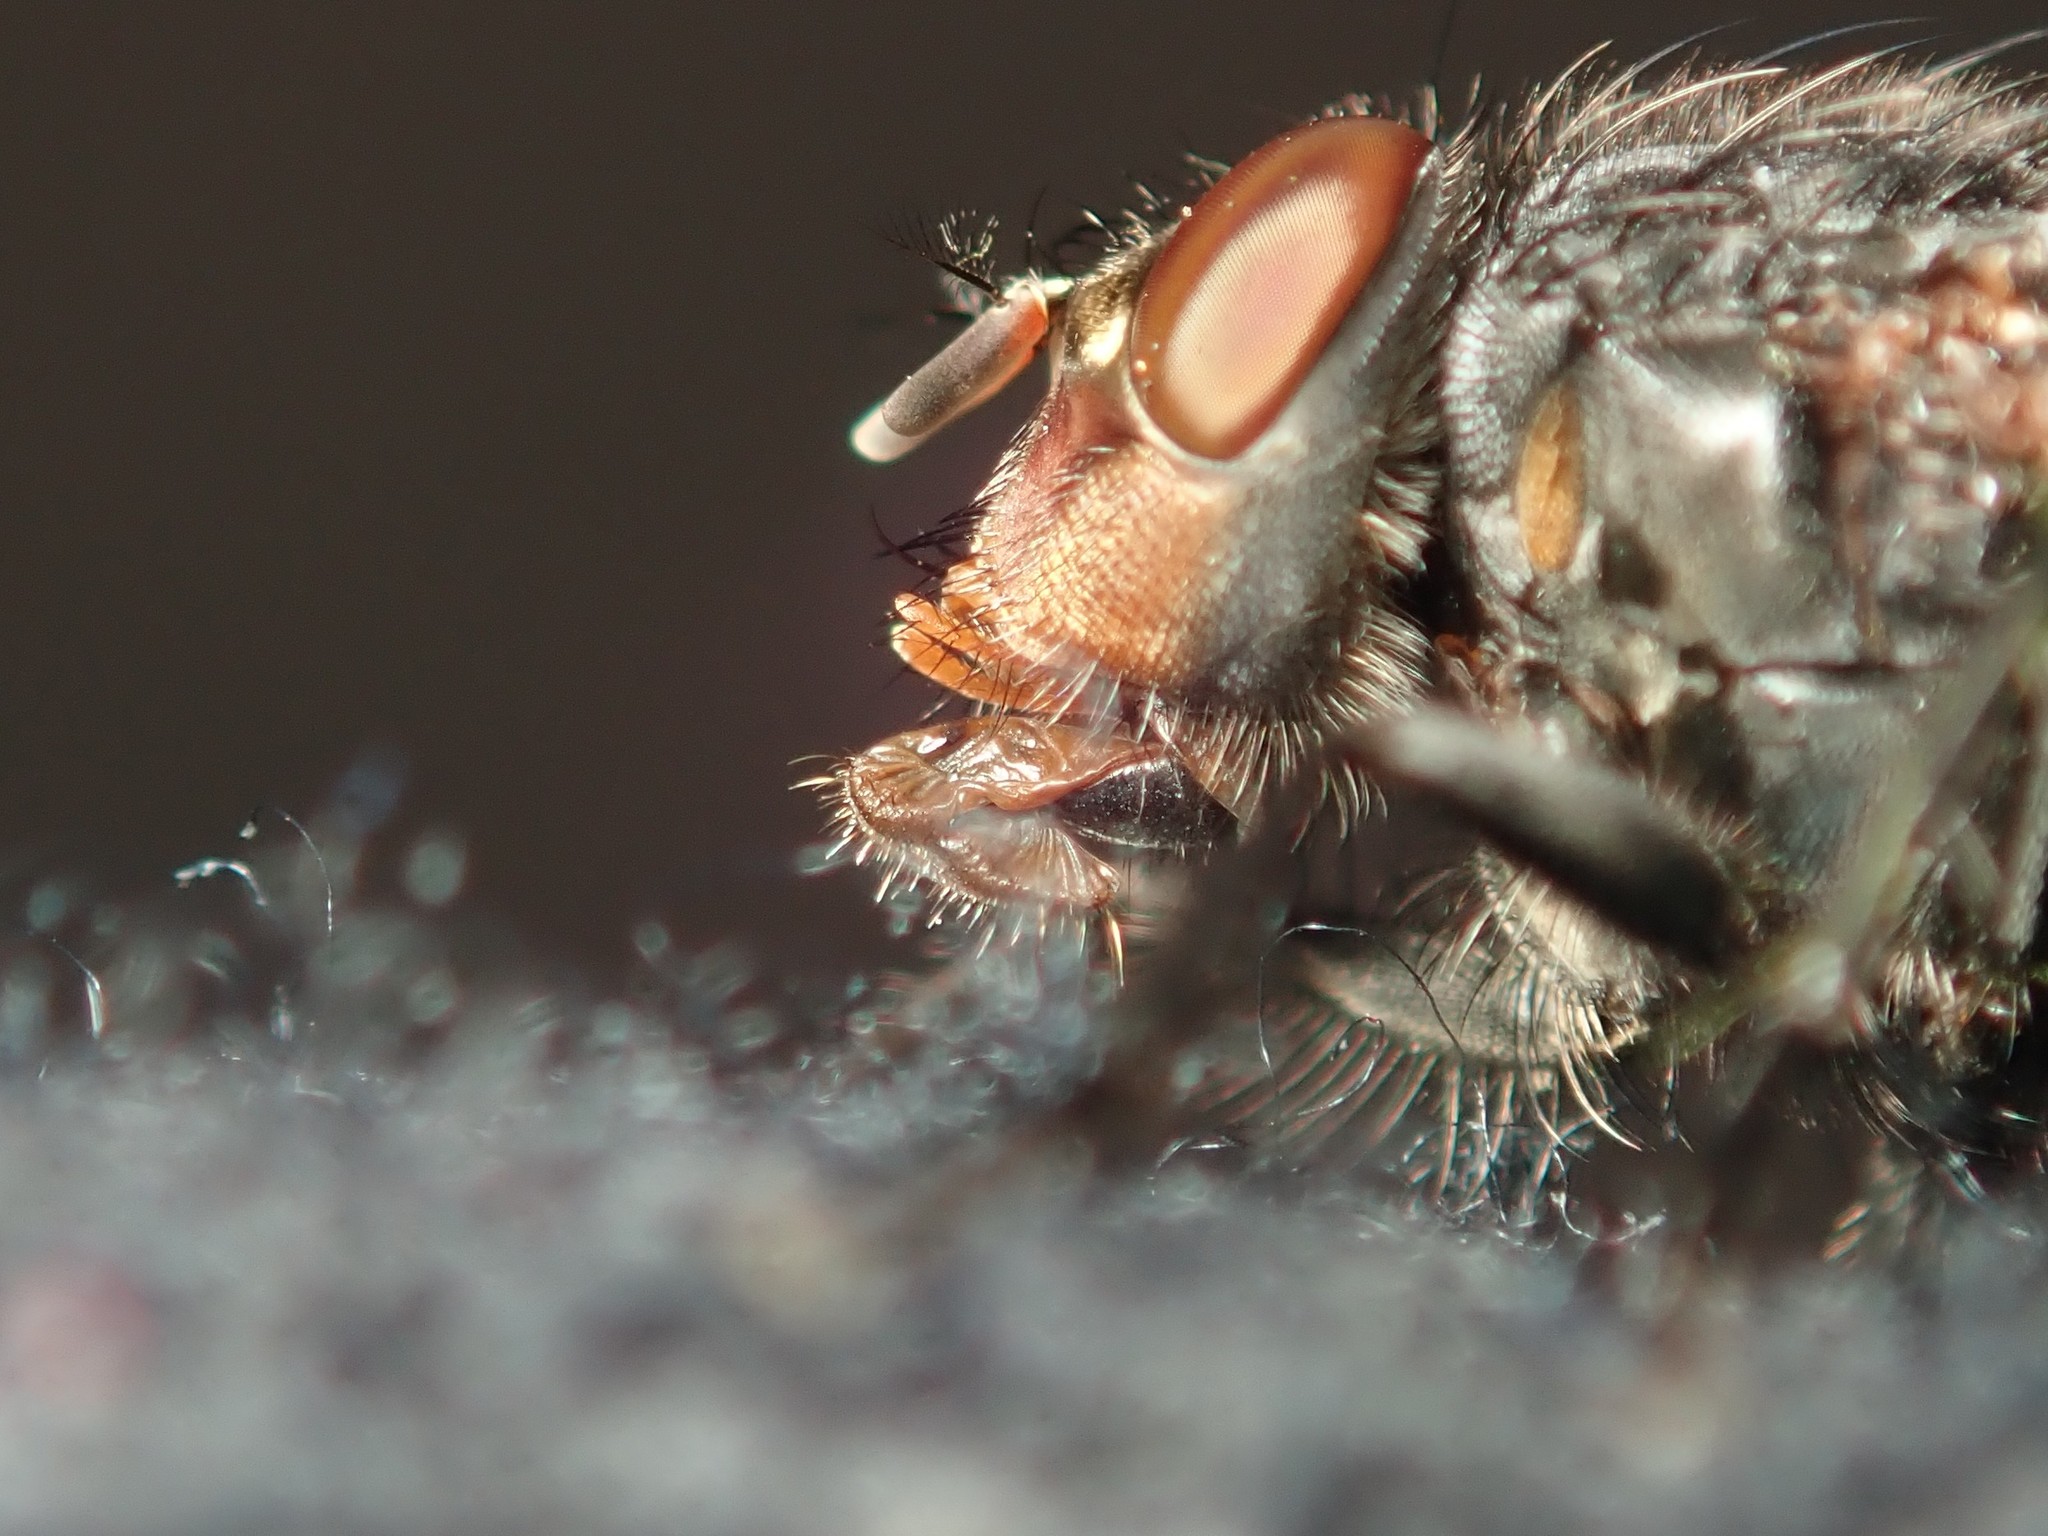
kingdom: Animalia
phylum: Arthropoda
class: Insecta
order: Diptera
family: Calliphoridae
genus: Calliphora
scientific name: Calliphora vicina
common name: Common blow flie
